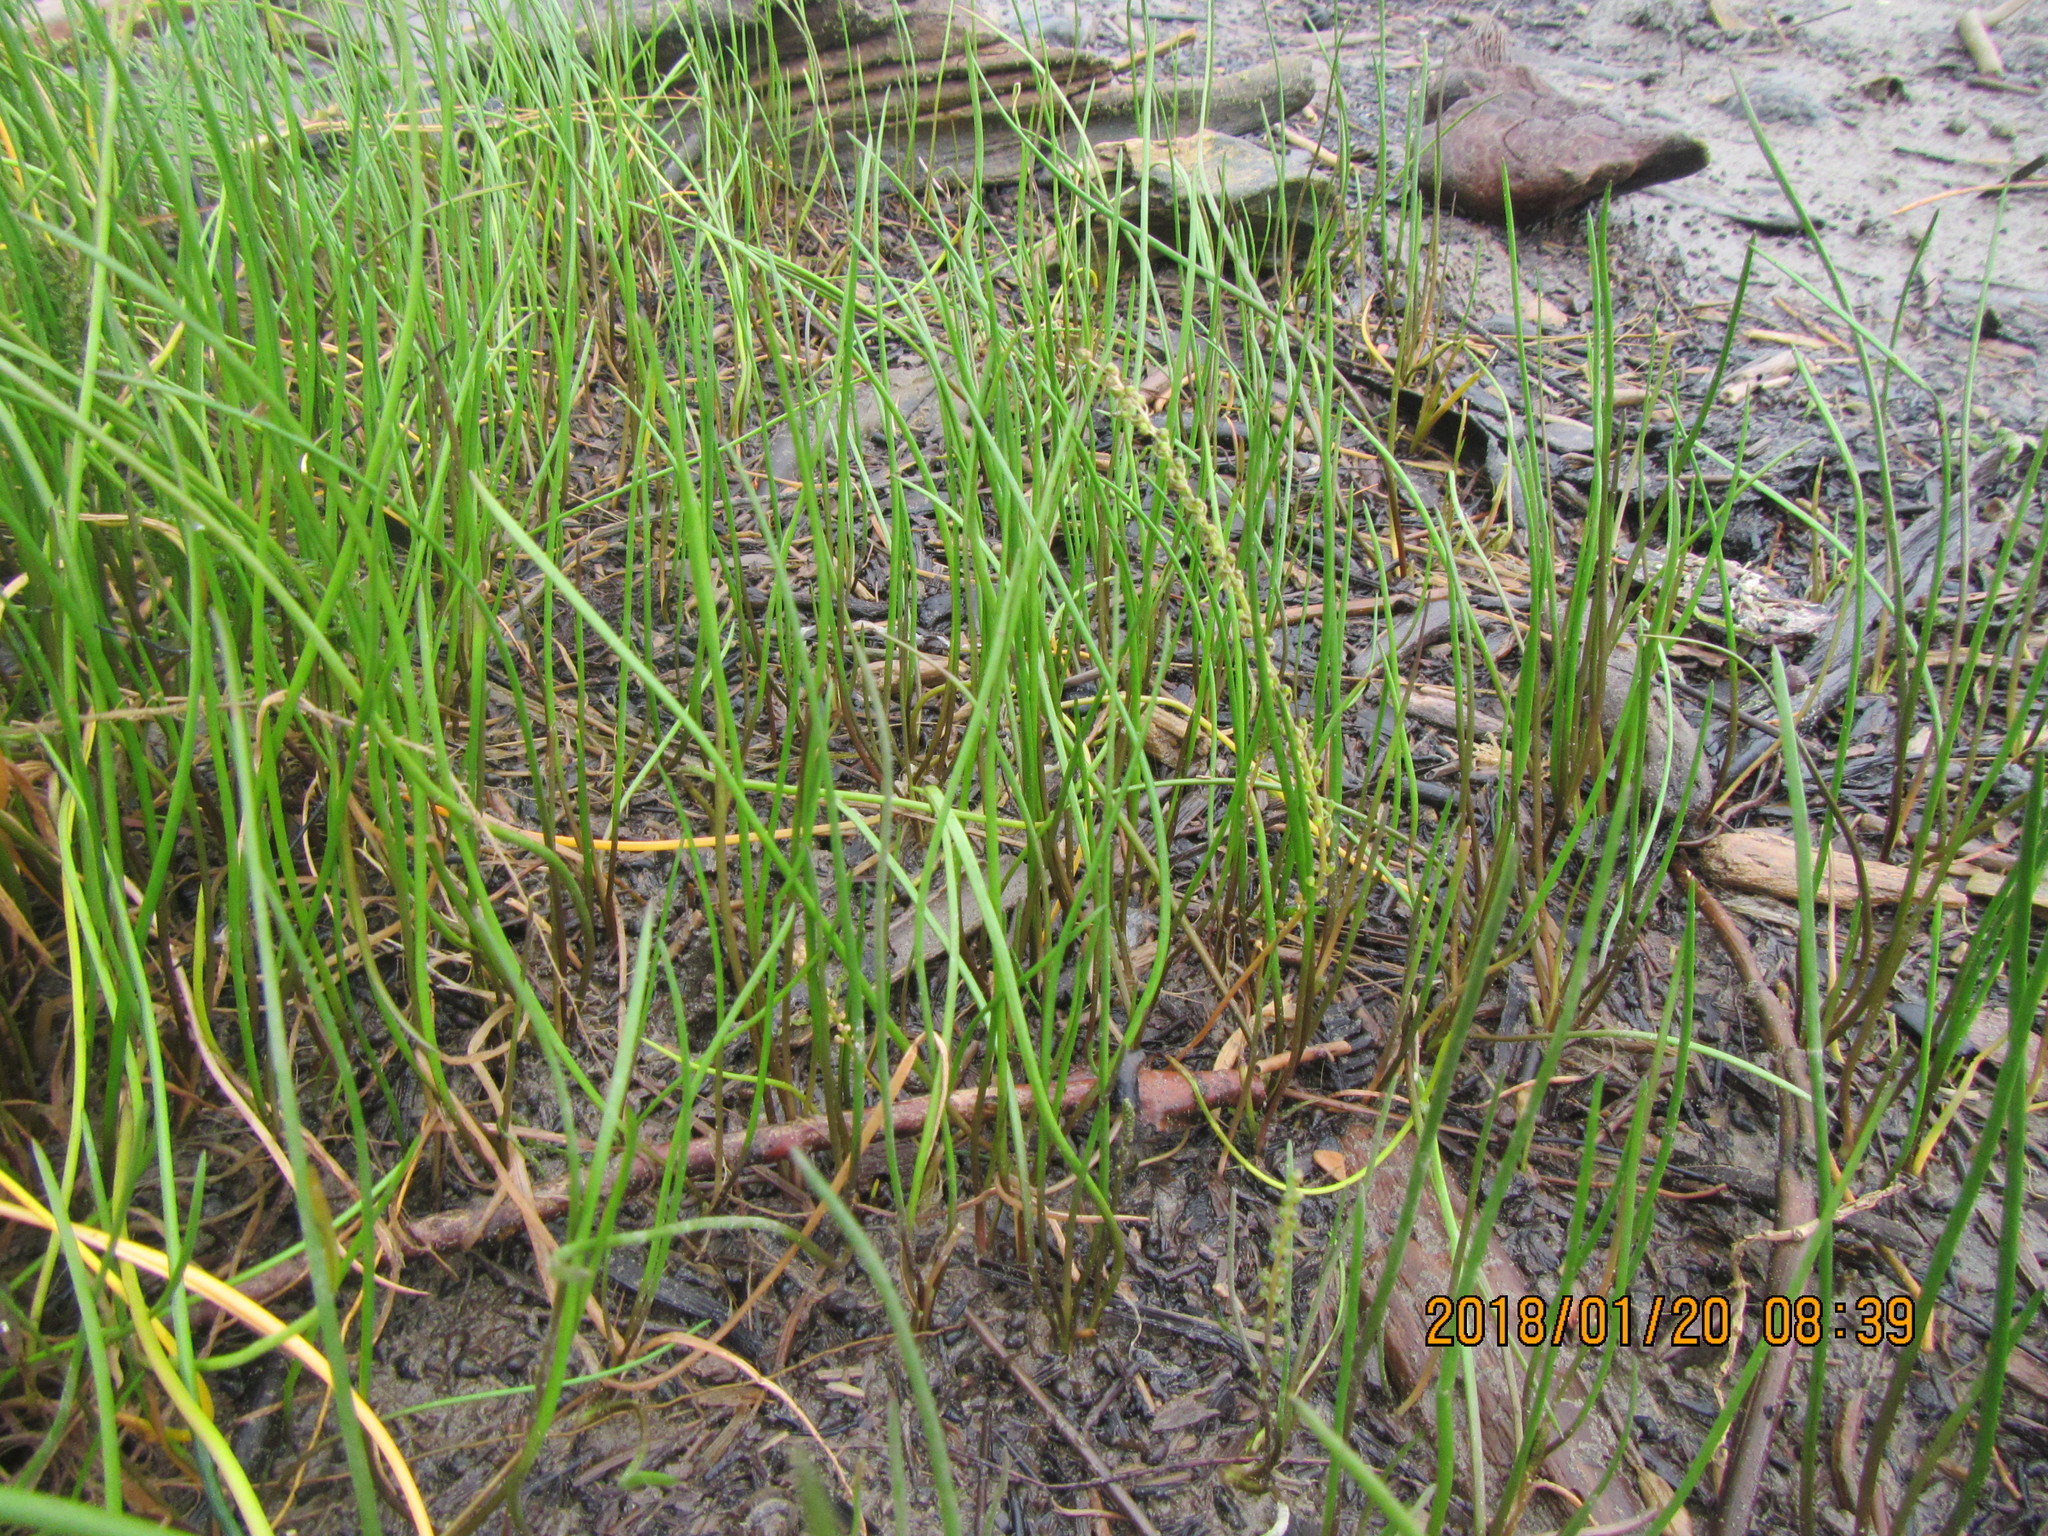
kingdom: Plantae
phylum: Tracheophyta
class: Liliopsida
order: Alismatales
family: Juncaginaceae
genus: Triglochin
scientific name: Triglochin striata
